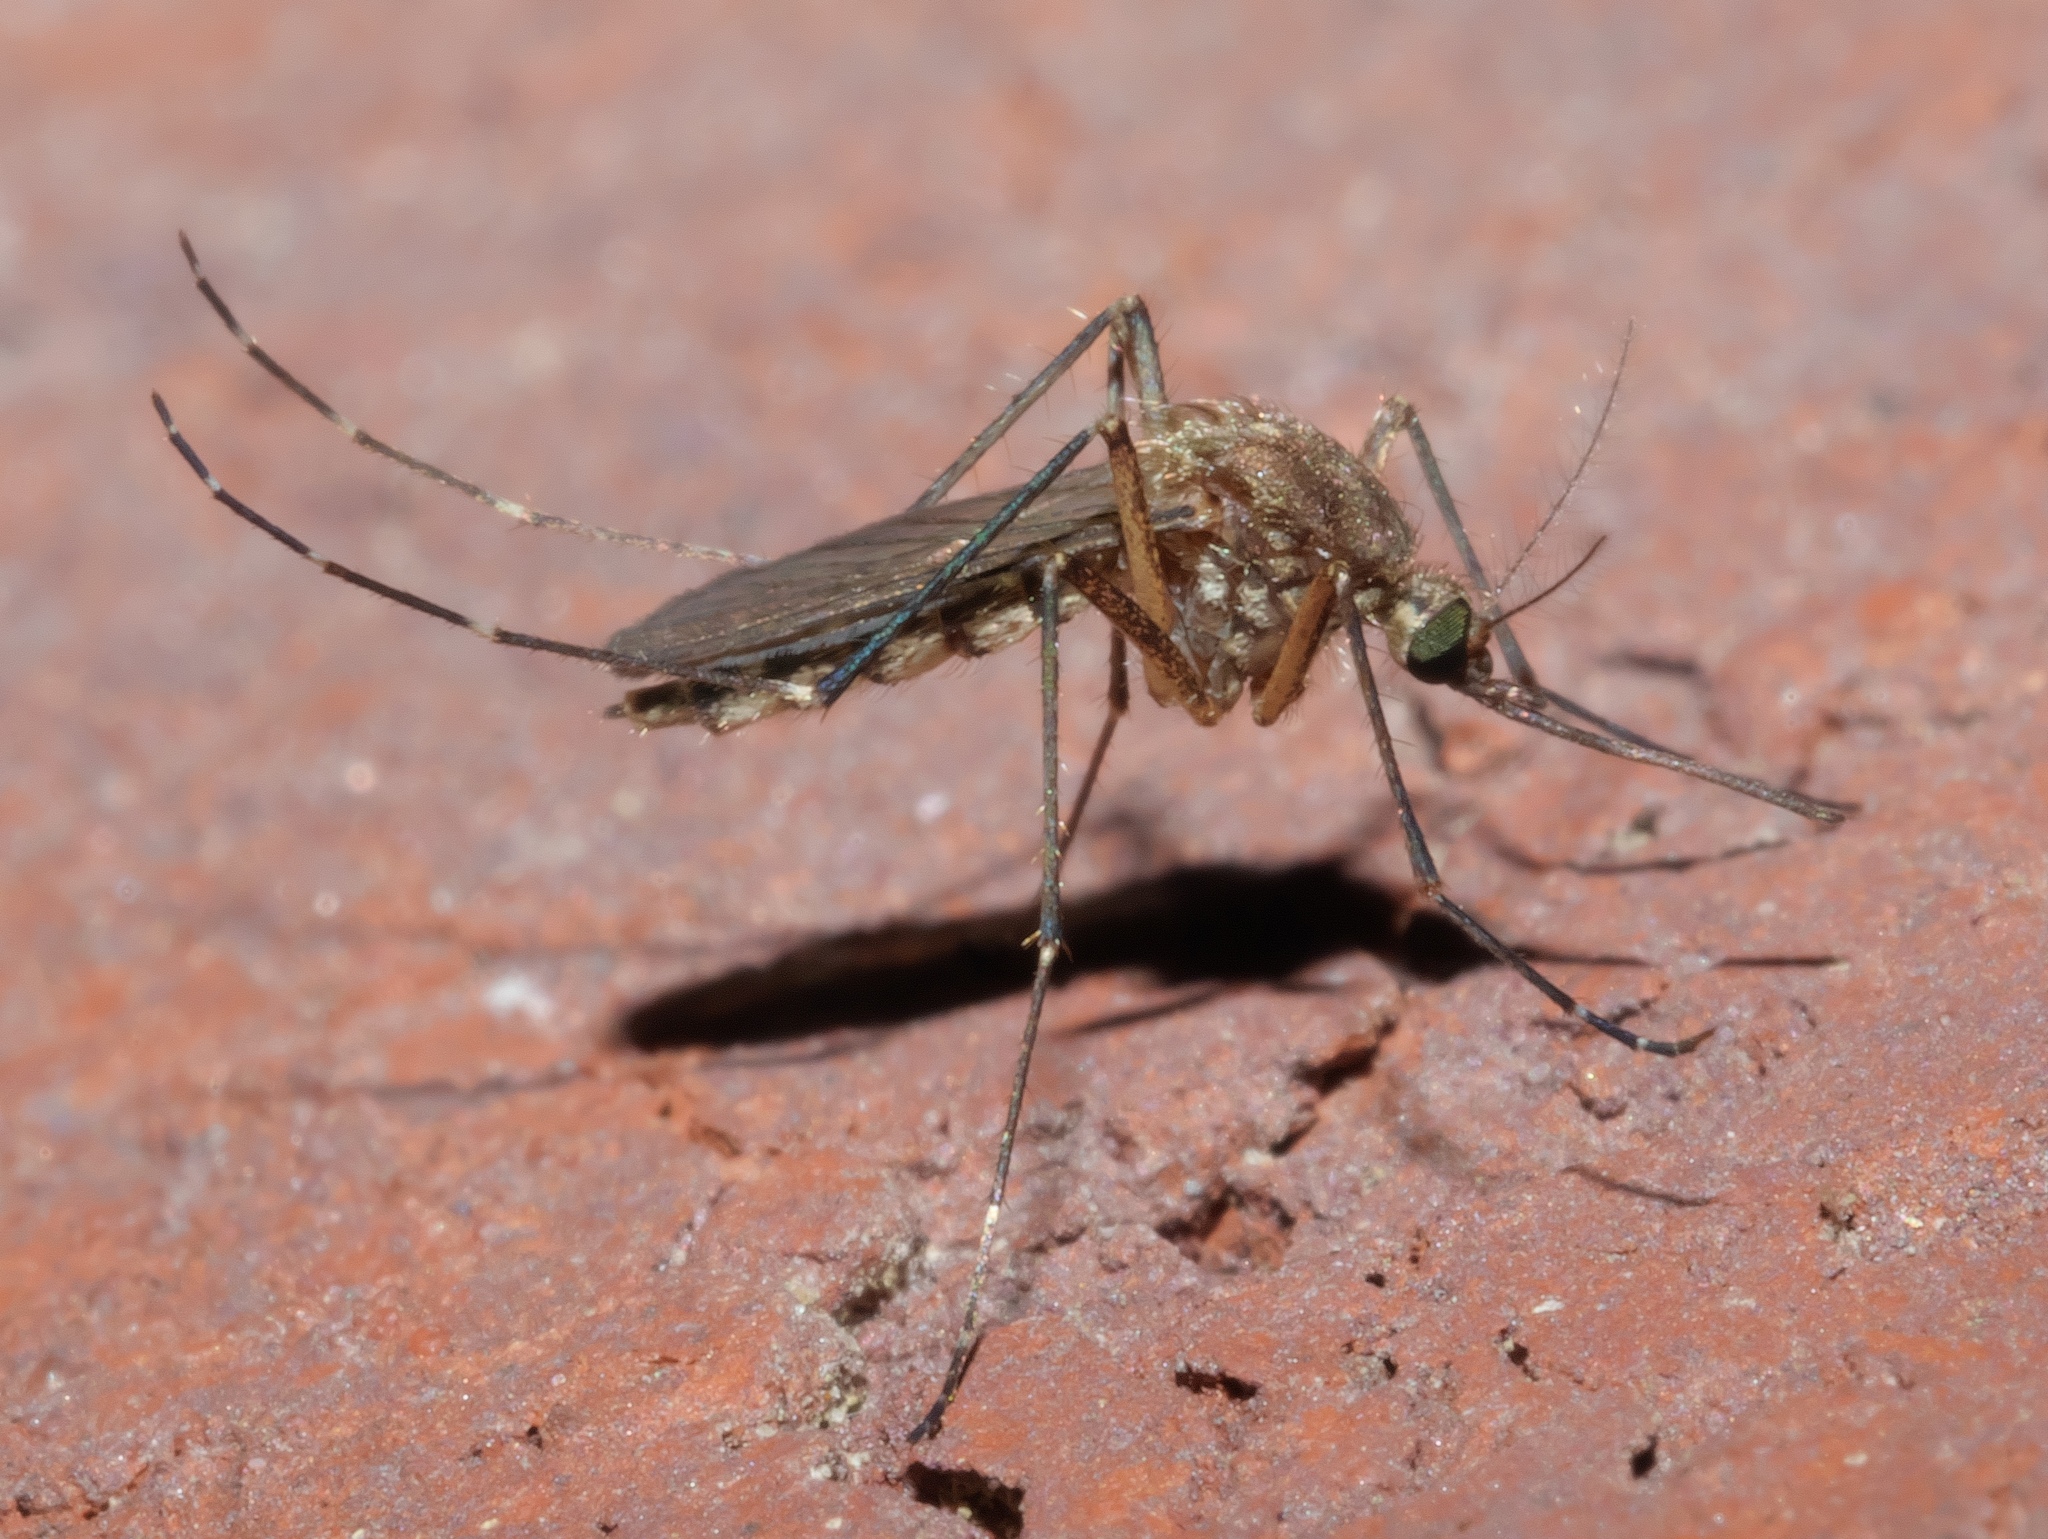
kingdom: Animalia
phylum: Arthropoda
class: Insecta
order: Diptera
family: Culicidae
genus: Aedes
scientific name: Aedes vexans
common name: Inland floodwater mosquito
